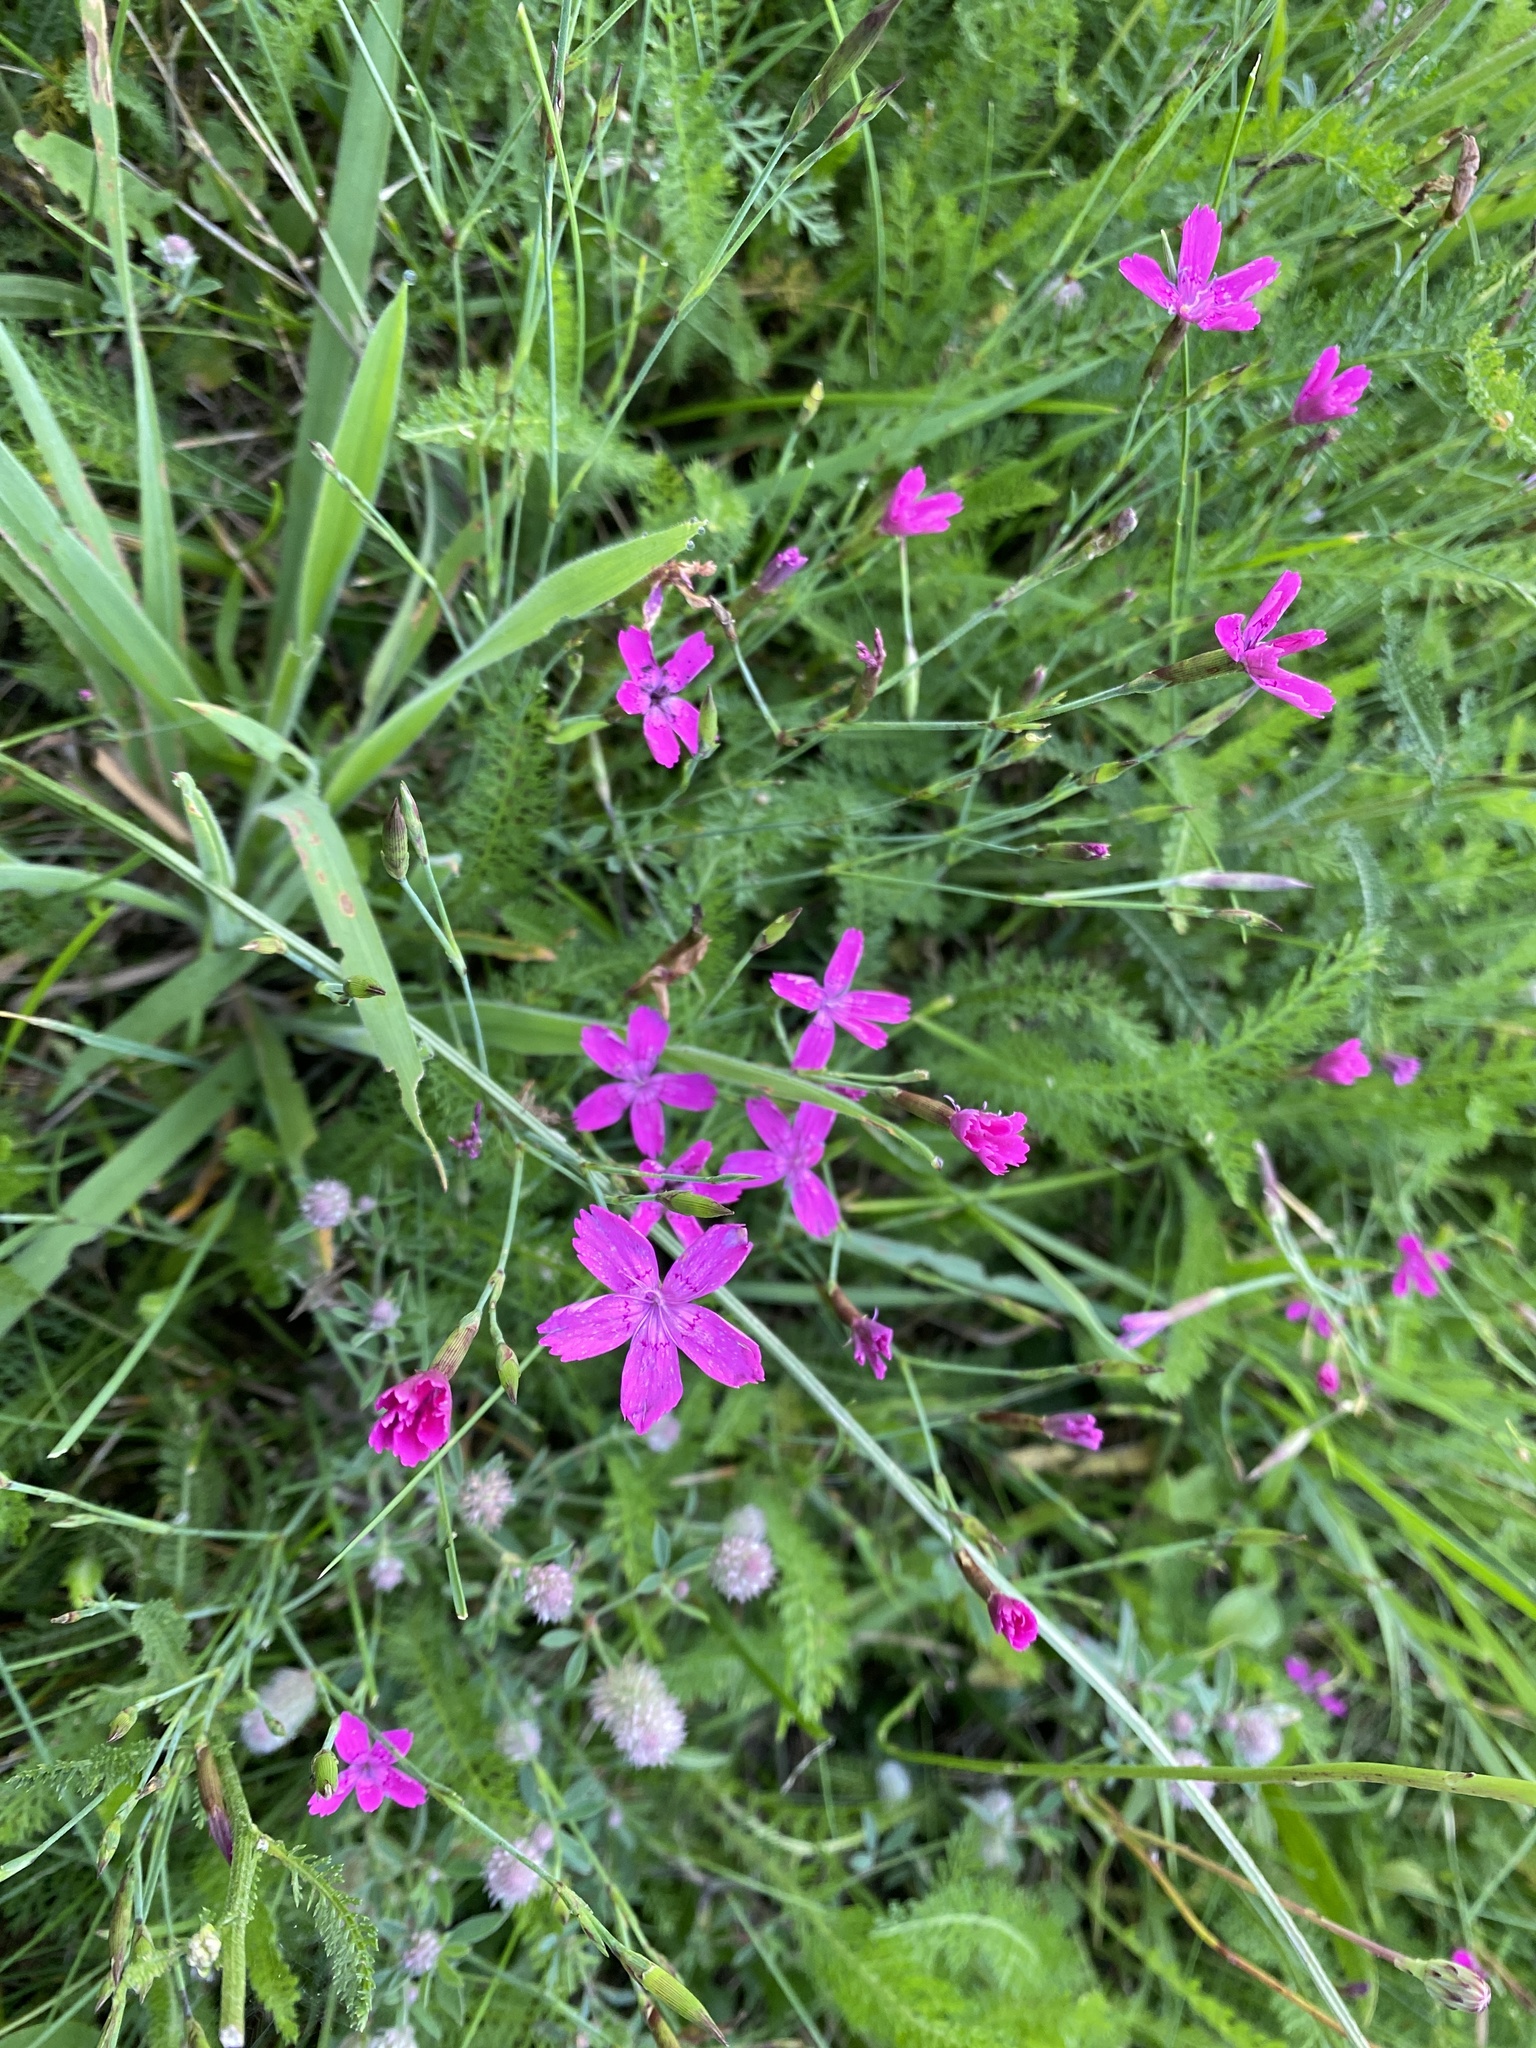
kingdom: Plantae
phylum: Tracheophyta
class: Magnoliopsida
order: Caryophyllales
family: Caryophyllaceae
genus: Dianthus
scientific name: Dianthus deltoides
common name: Maiden pink
